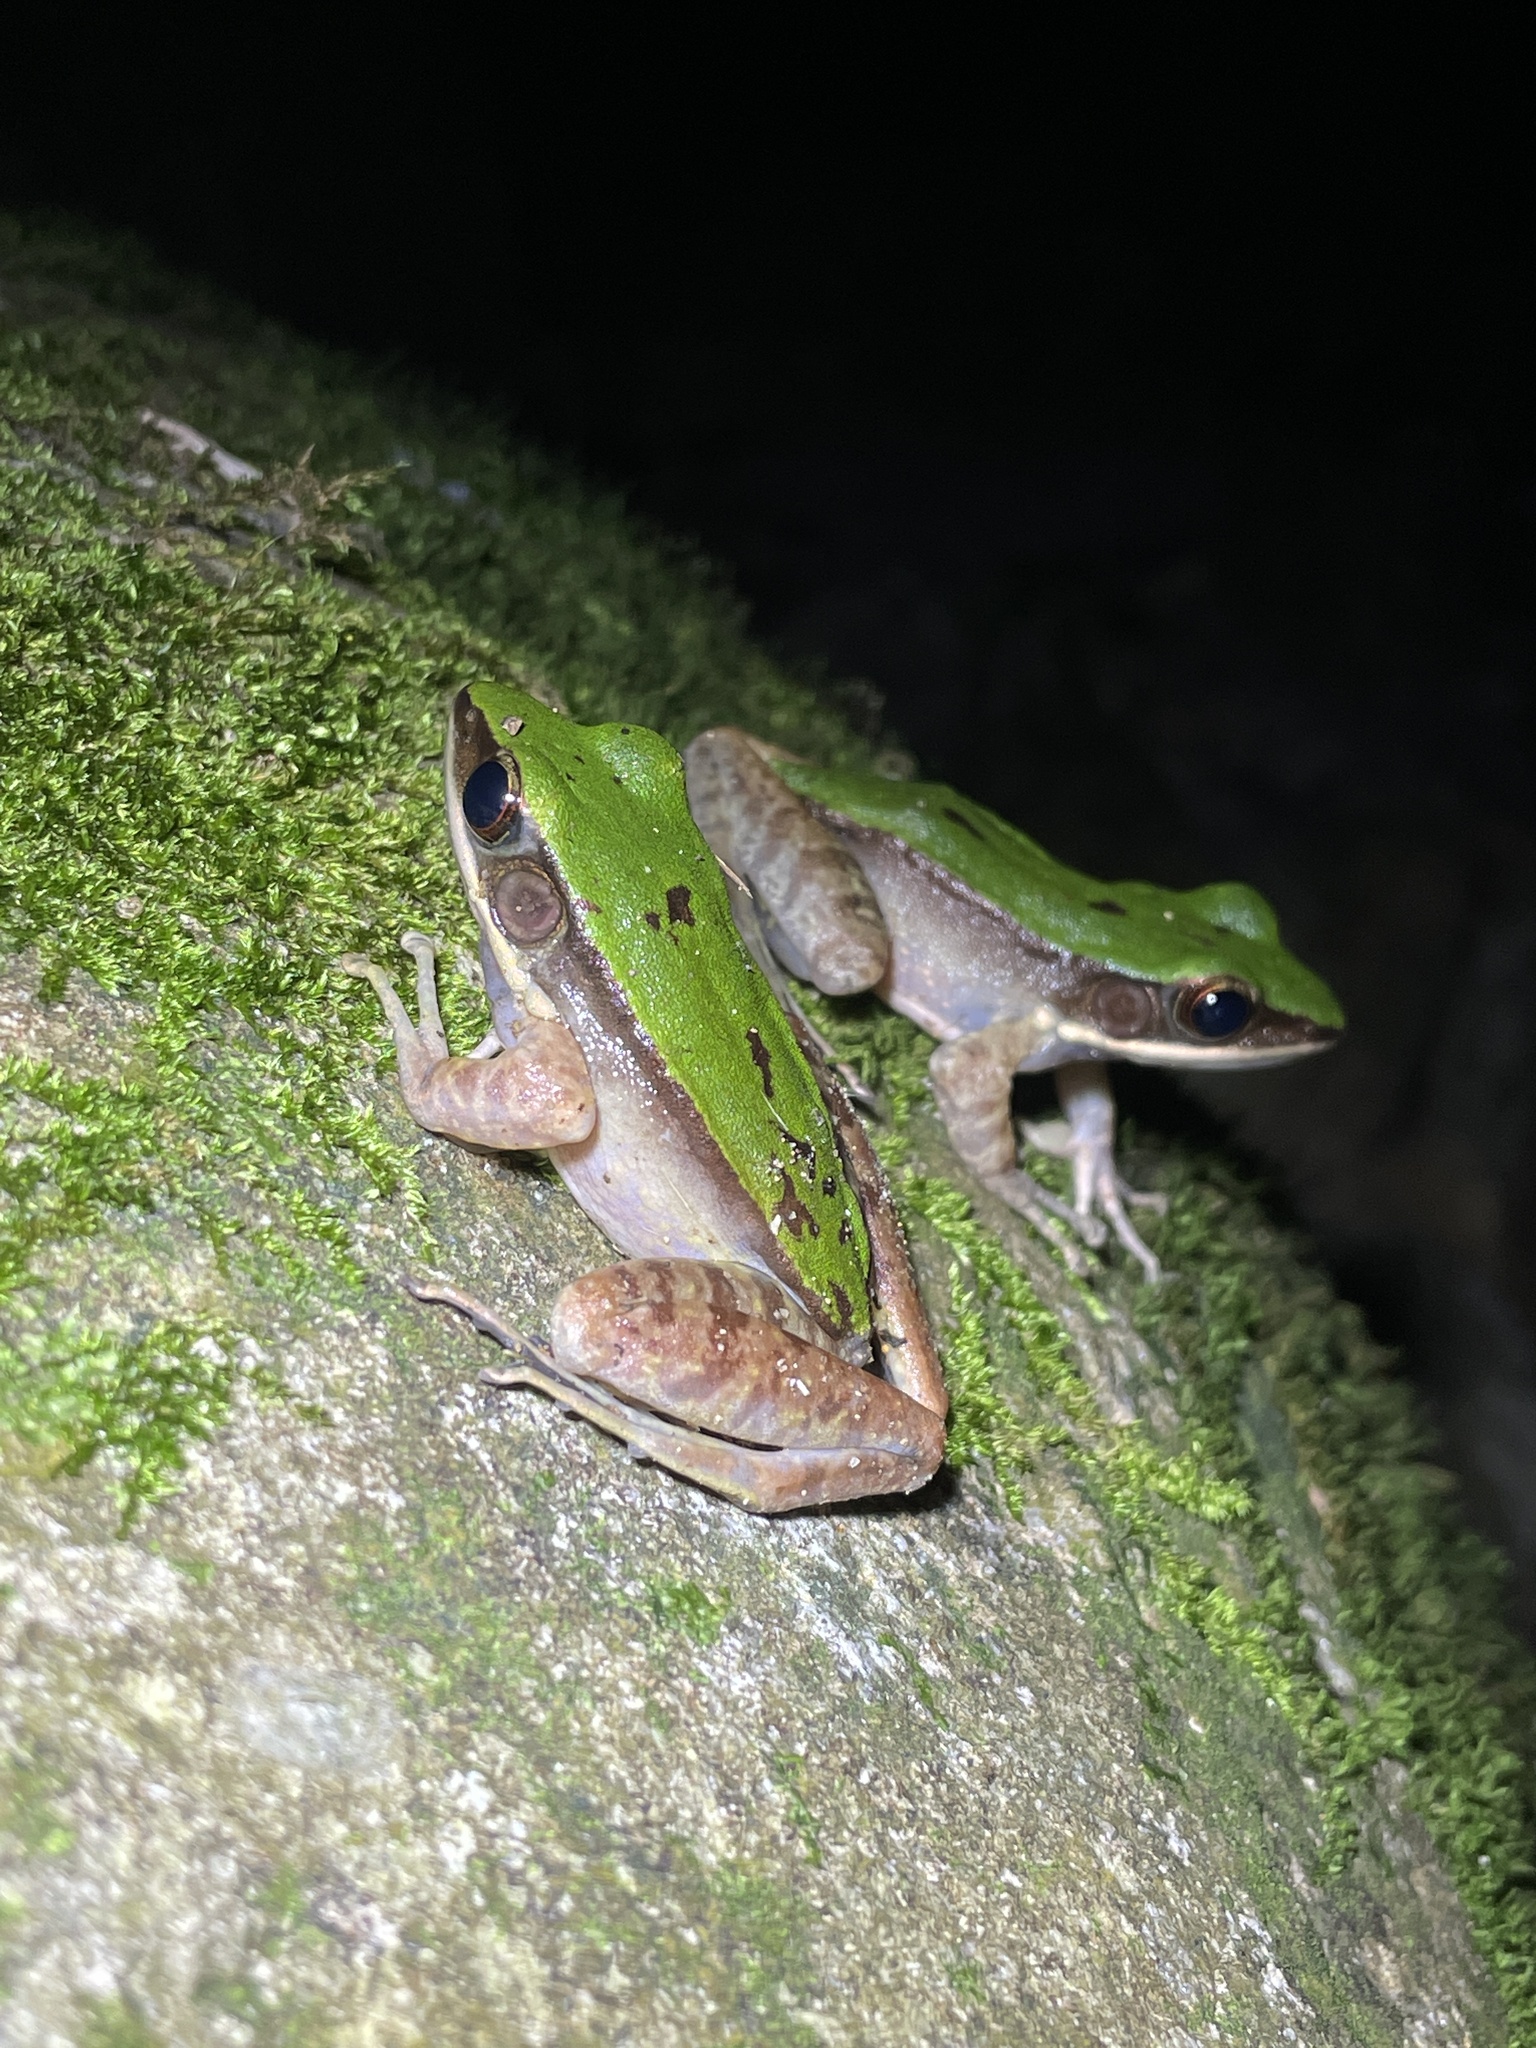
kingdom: Animalia
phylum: Chordata
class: Amphibia
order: Anura
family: Ranidae
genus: Odorrana
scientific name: Odorrana graminea
